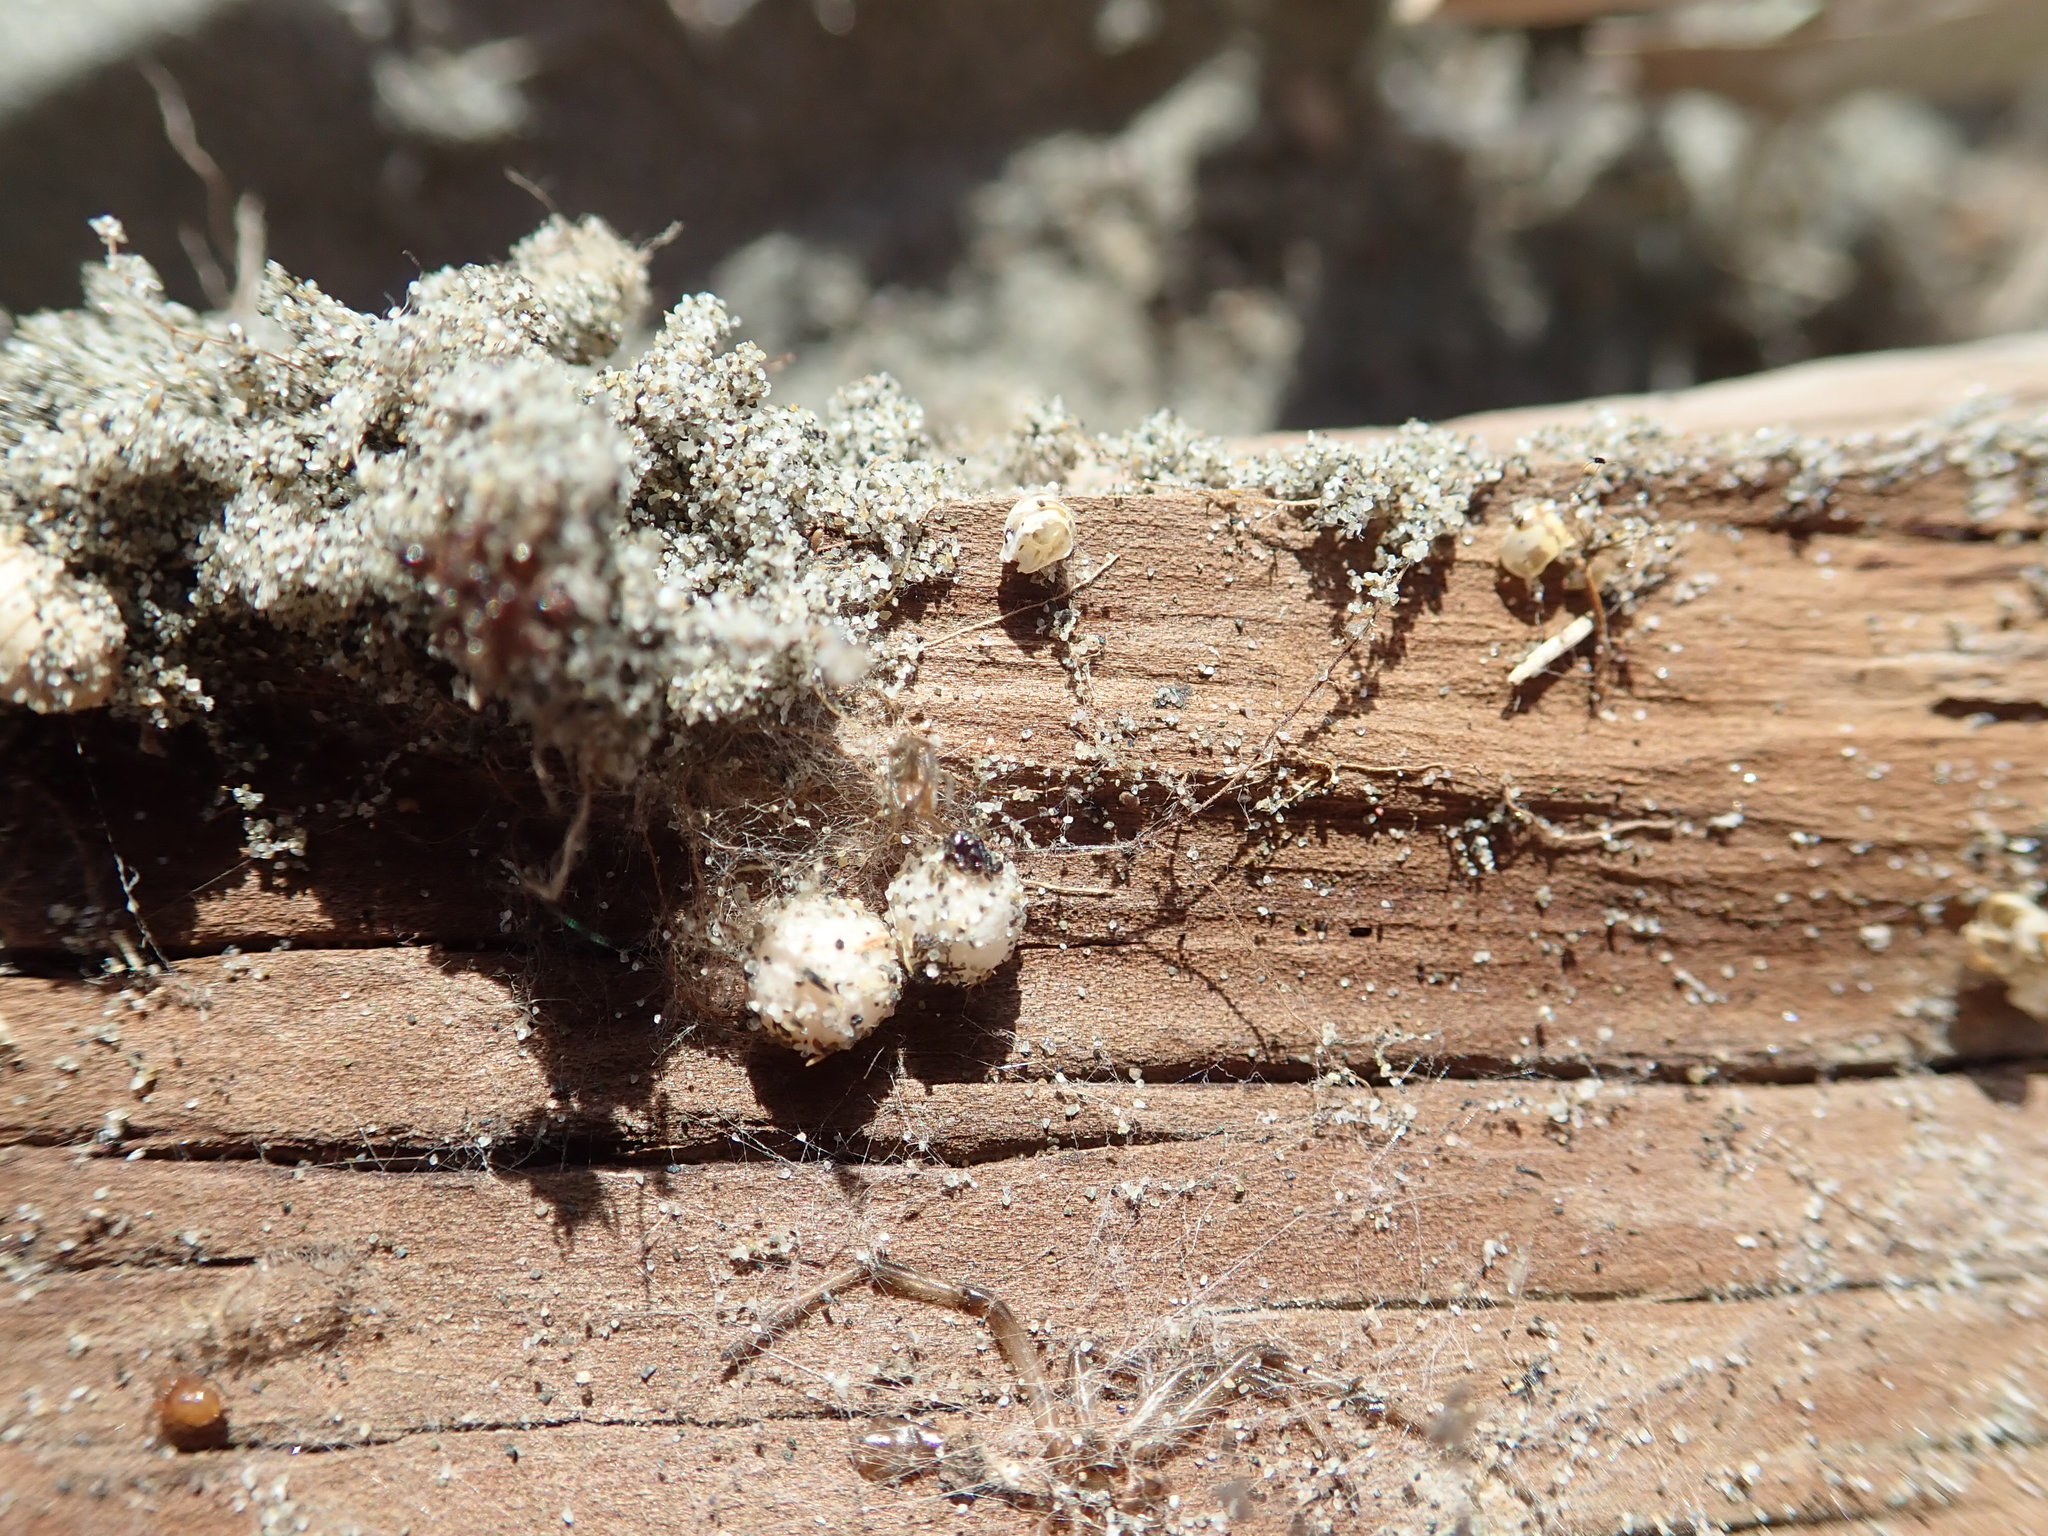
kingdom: Animalia
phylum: Arthropoda
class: Arachnida
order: Araneae
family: Theridiidae
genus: Steatoda
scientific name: Steatoda lepida
